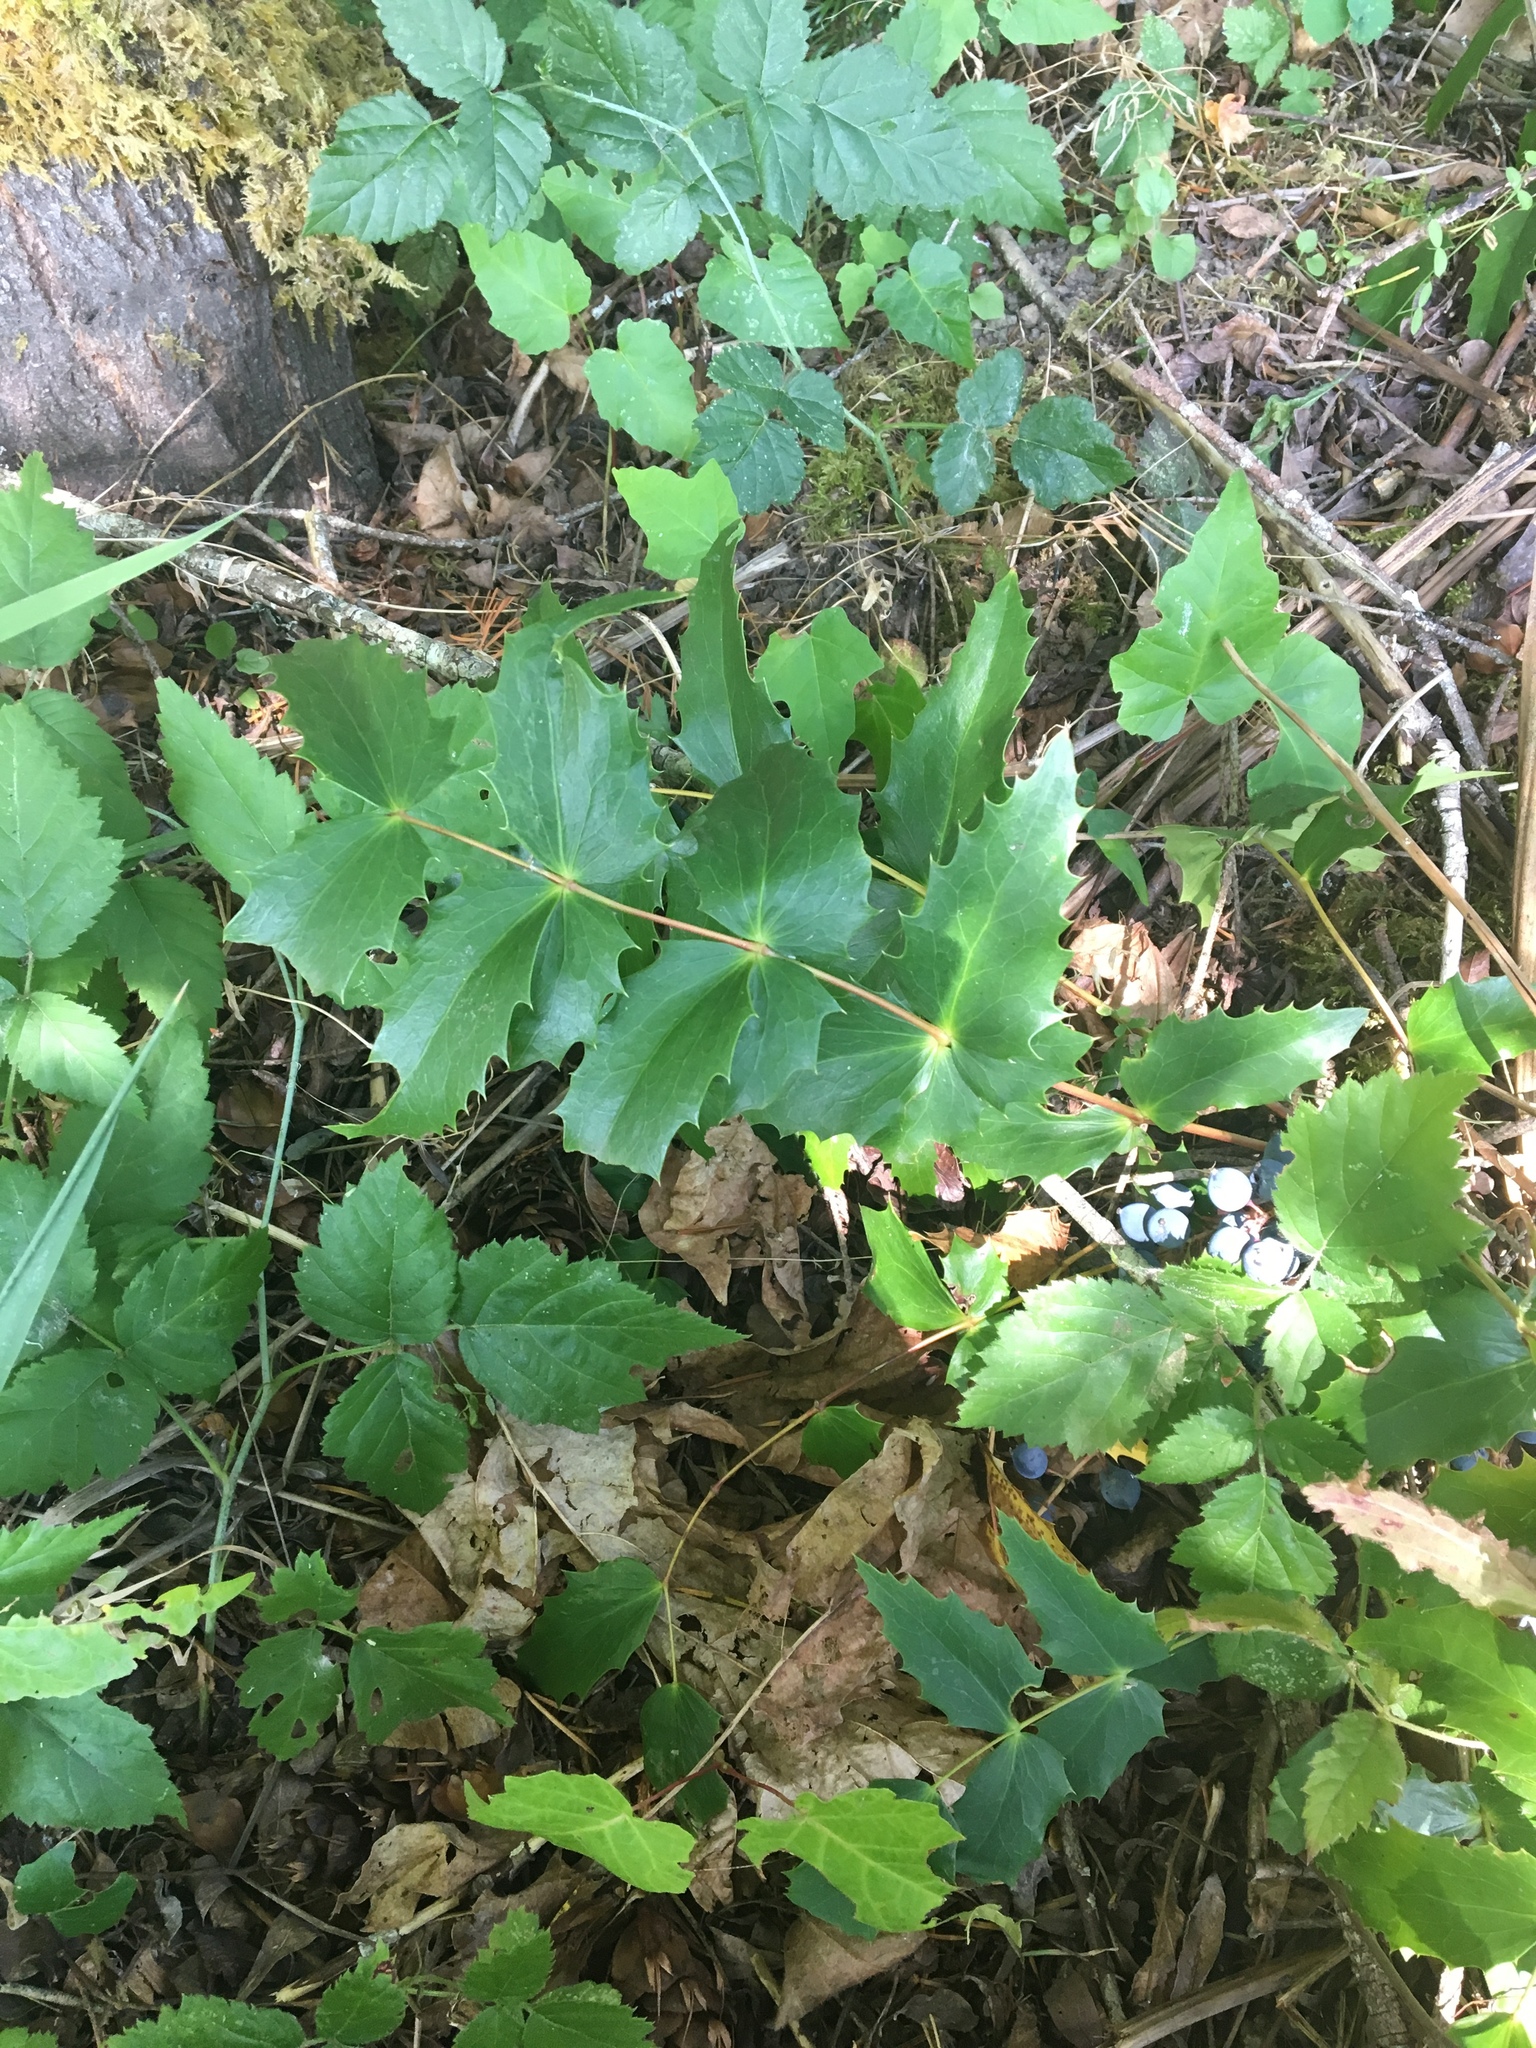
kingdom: Plantae
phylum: Tracheophyta
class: Magnoliopsida
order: Ranunculales
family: Berberidaceae
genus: Mahonia
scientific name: Mahonia nervosa
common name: Cascade oregon-grape
